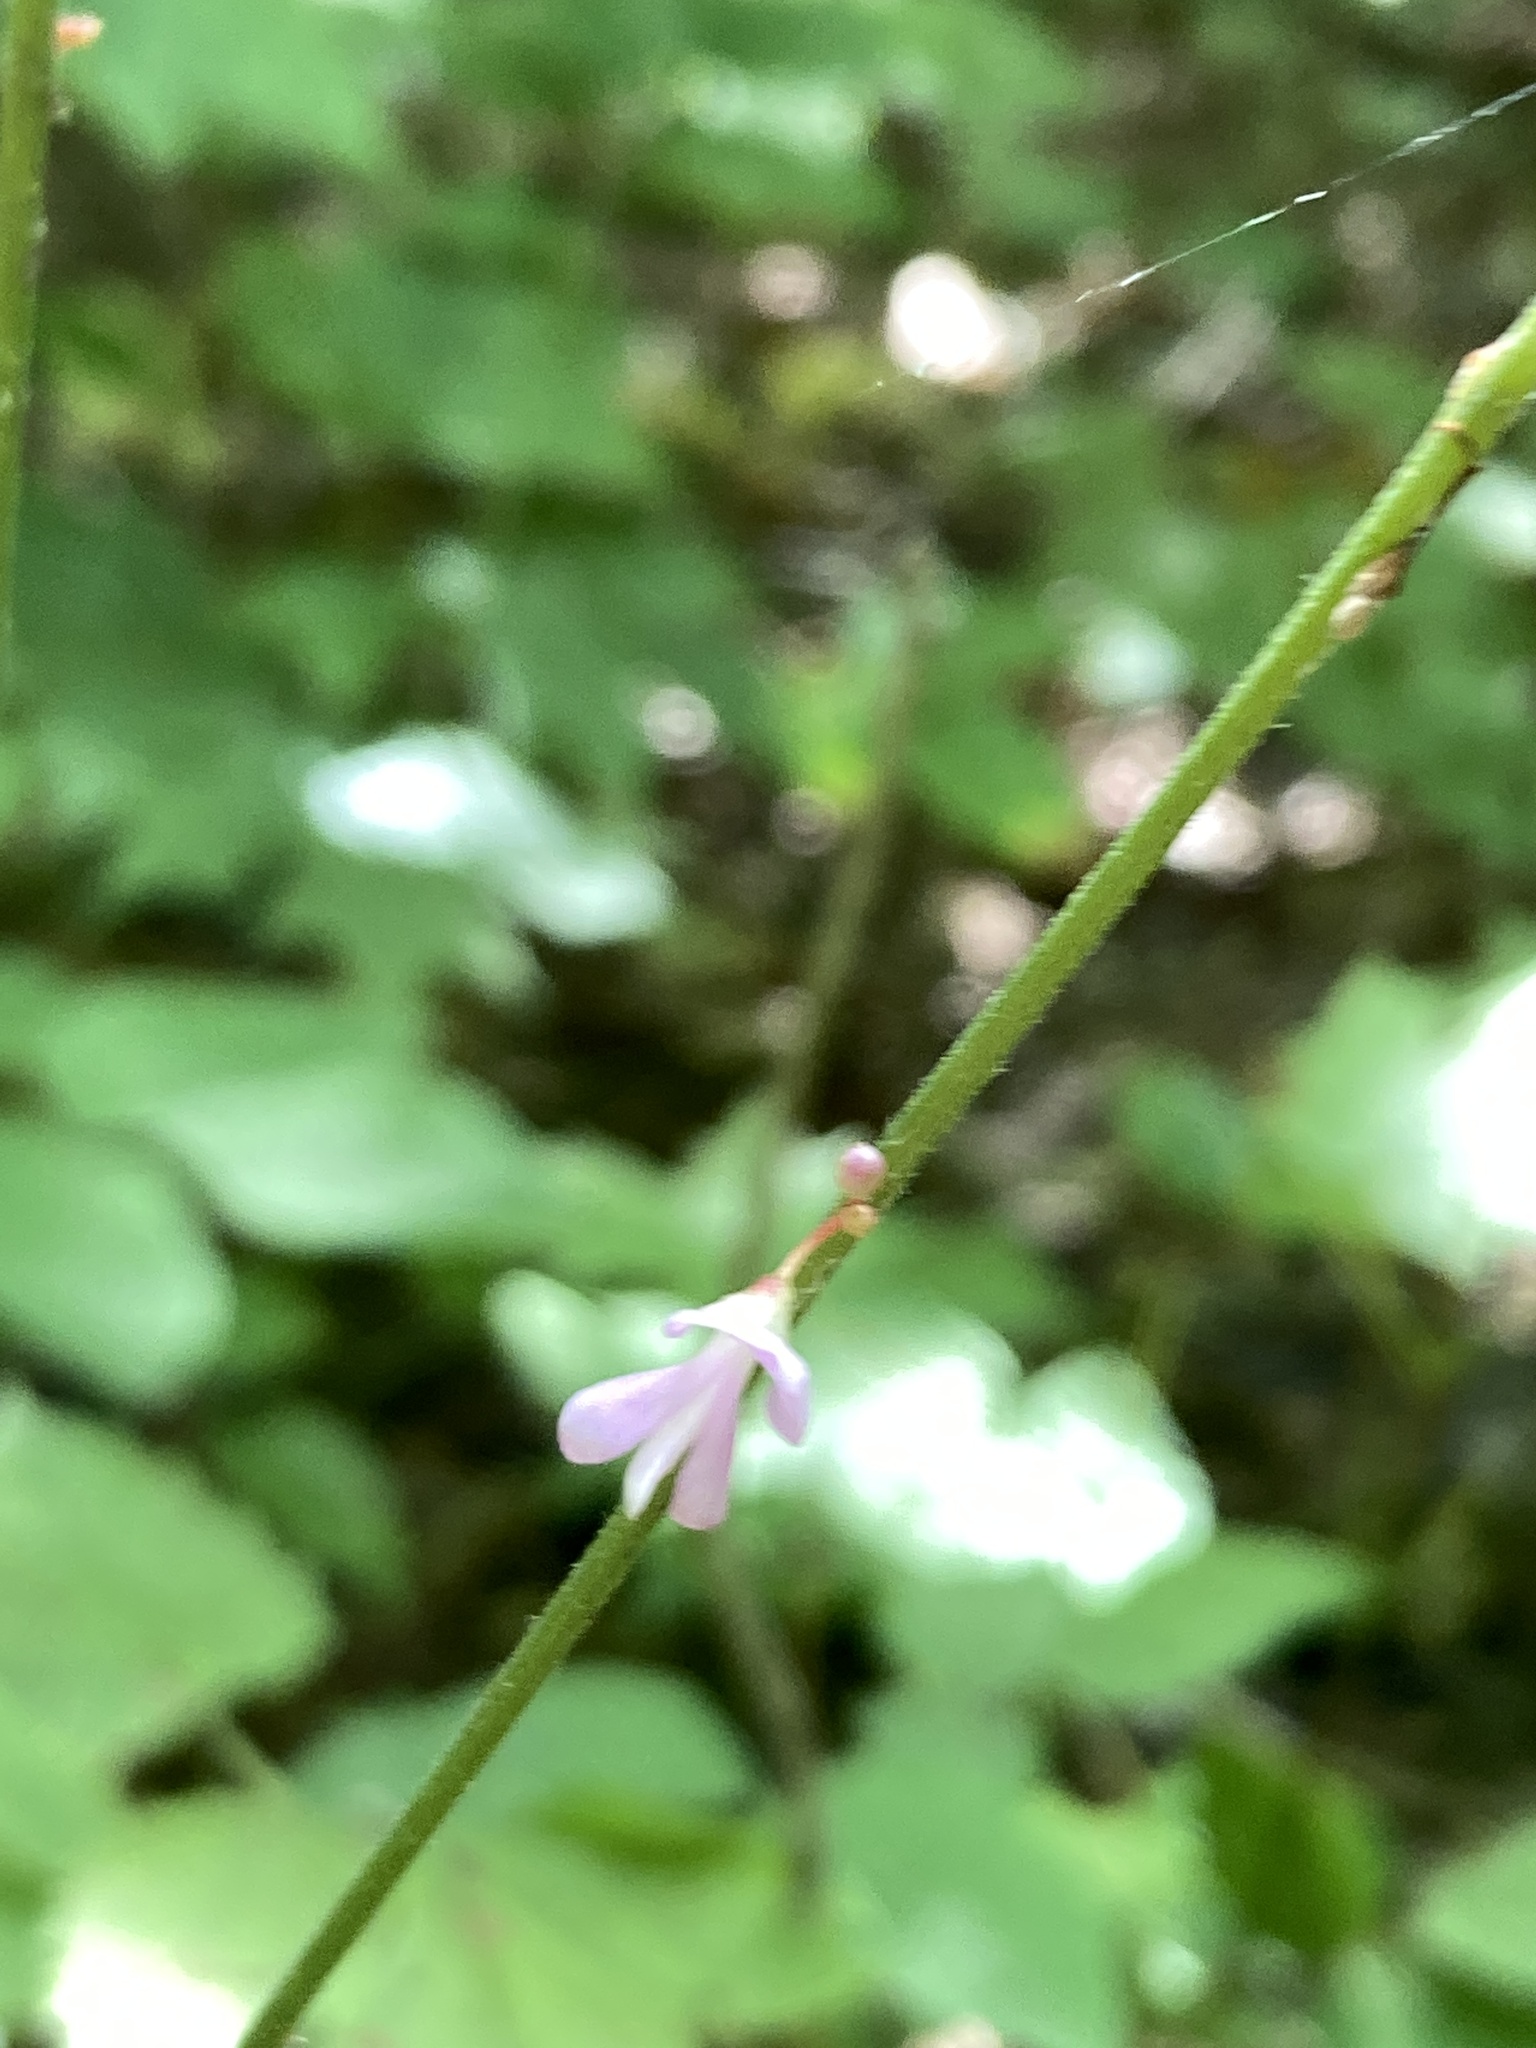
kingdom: Plantae
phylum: Tracheophyta
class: Magnoliopsida
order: Fabales
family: Fabaceae
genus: Hylodesmum
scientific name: Hylodesmum nudiflorum
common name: Bare-stemmed tick-trefoil
